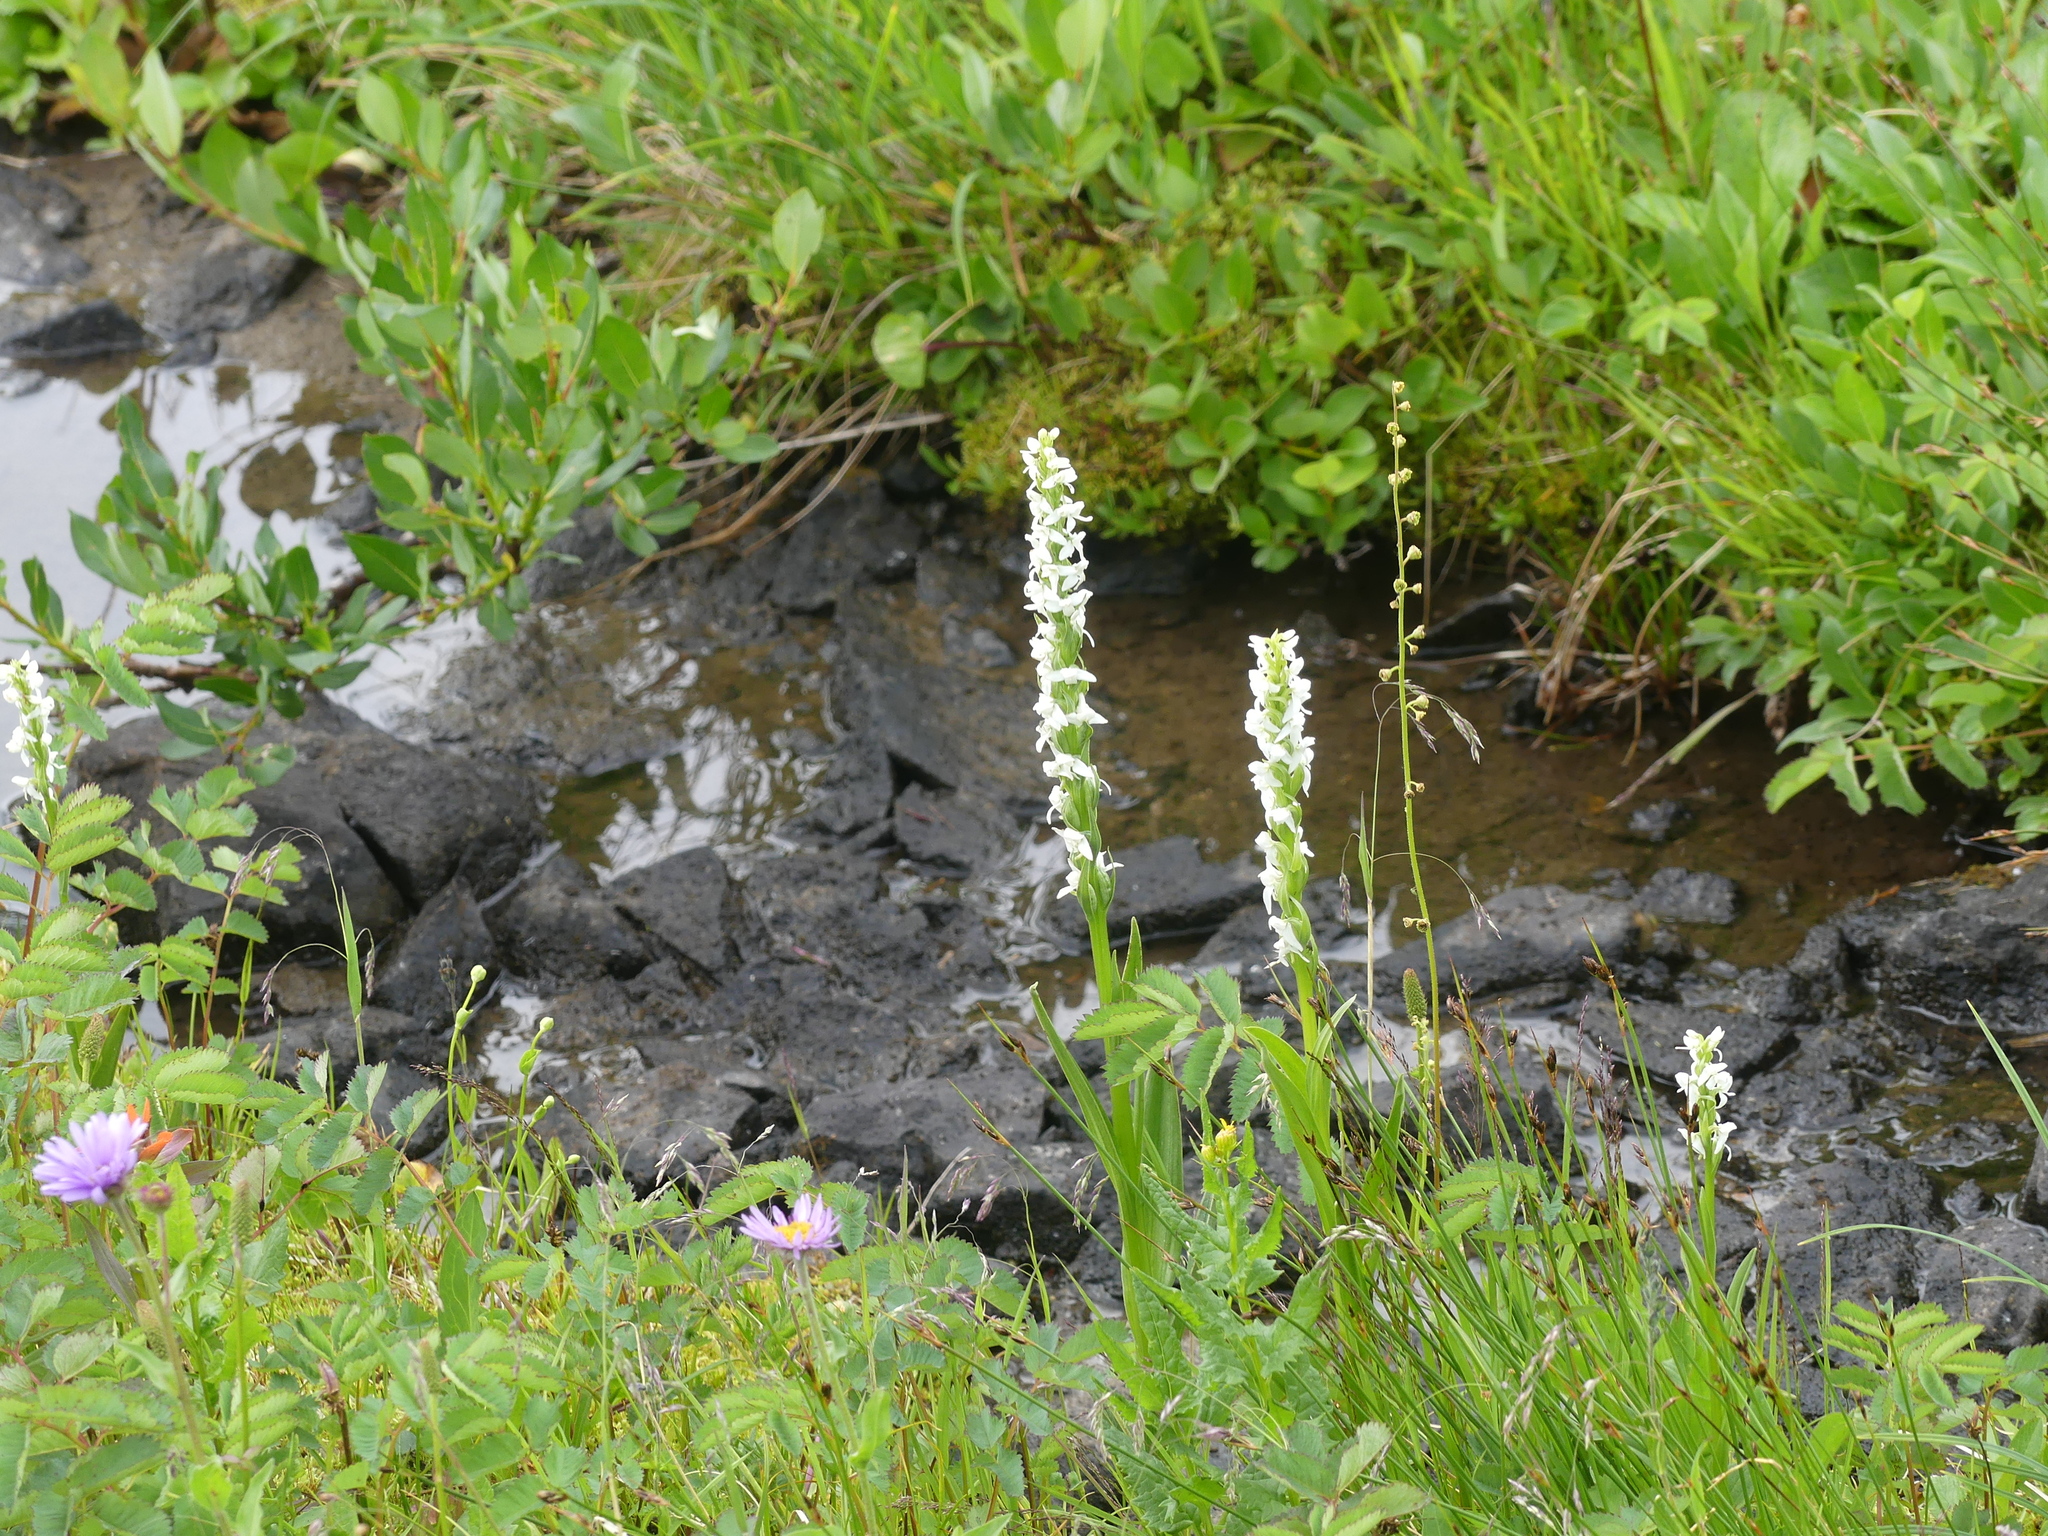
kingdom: Plantae
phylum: Tracheophyta
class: Liliopsida
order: Asparagales
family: Orchidaceae
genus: Platanthera
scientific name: Platanthera dilatata
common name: Bog candles
